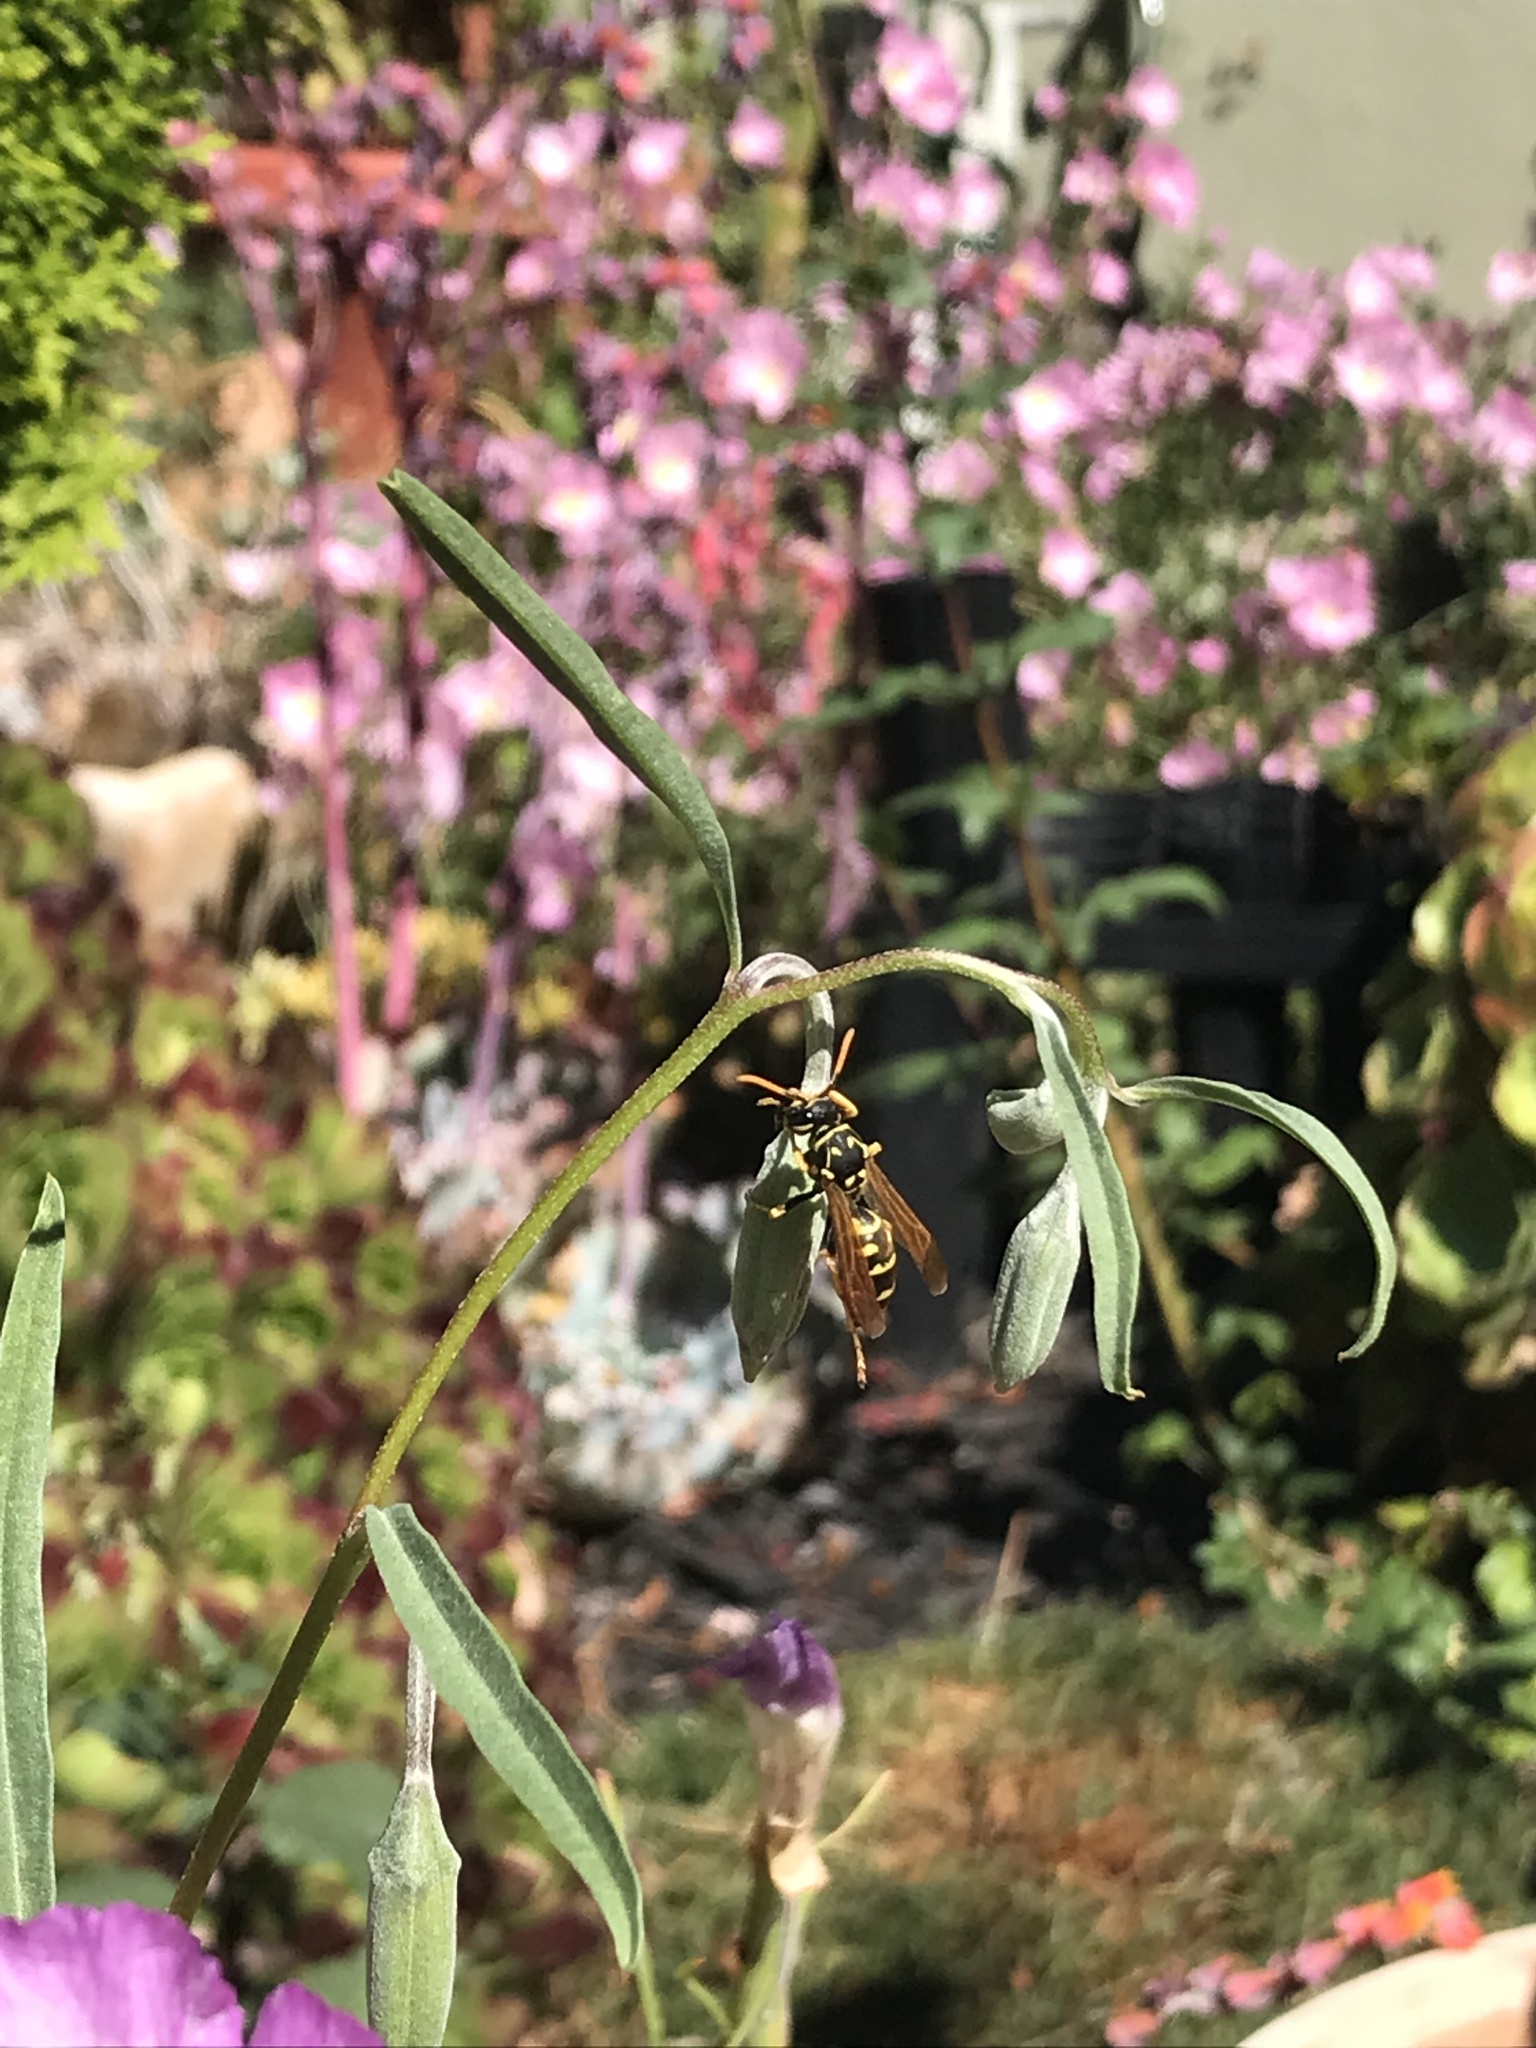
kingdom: Animalia
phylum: Arthropoda
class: Insecta
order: Hymenoptera
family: Eumenidae
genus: Polistes
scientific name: Polistes dominula
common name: Paper wasp
